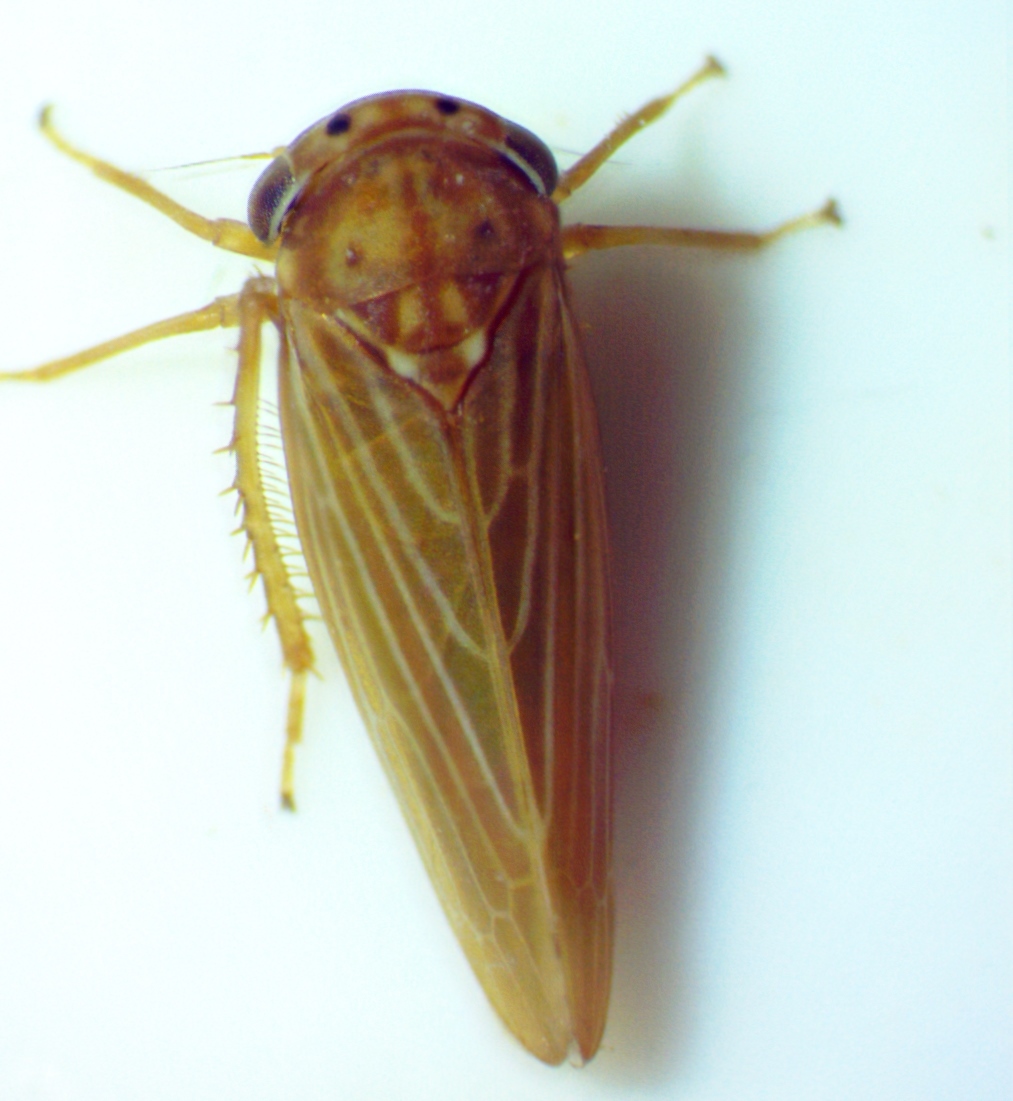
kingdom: Animalia
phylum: Arthropoda
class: Insecta
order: Hemiptera
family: Cicadellidae
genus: Agallia
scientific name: Agallia constricta
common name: The constricted leafhopper
